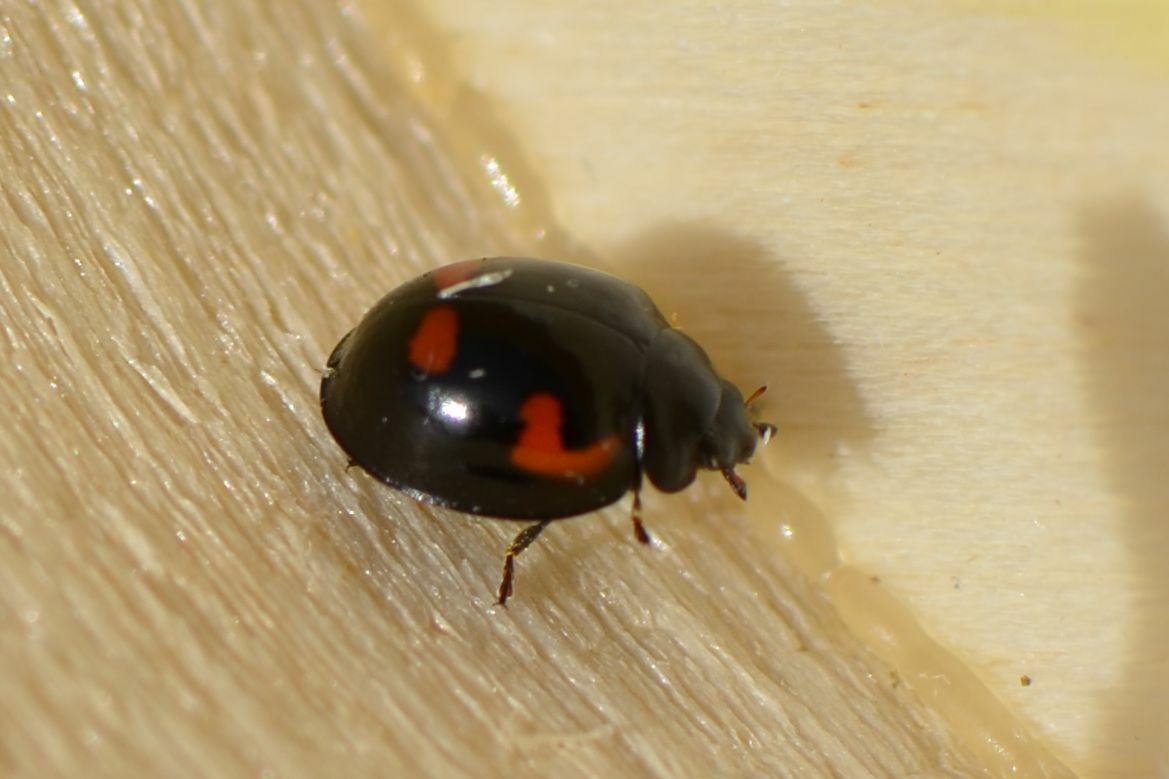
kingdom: Animalia
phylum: Arthropoda
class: Insecta
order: Coleoptera
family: Coccinellidae
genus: Brumus
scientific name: Brumus quadripustulatus
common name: Ladybird beetle
